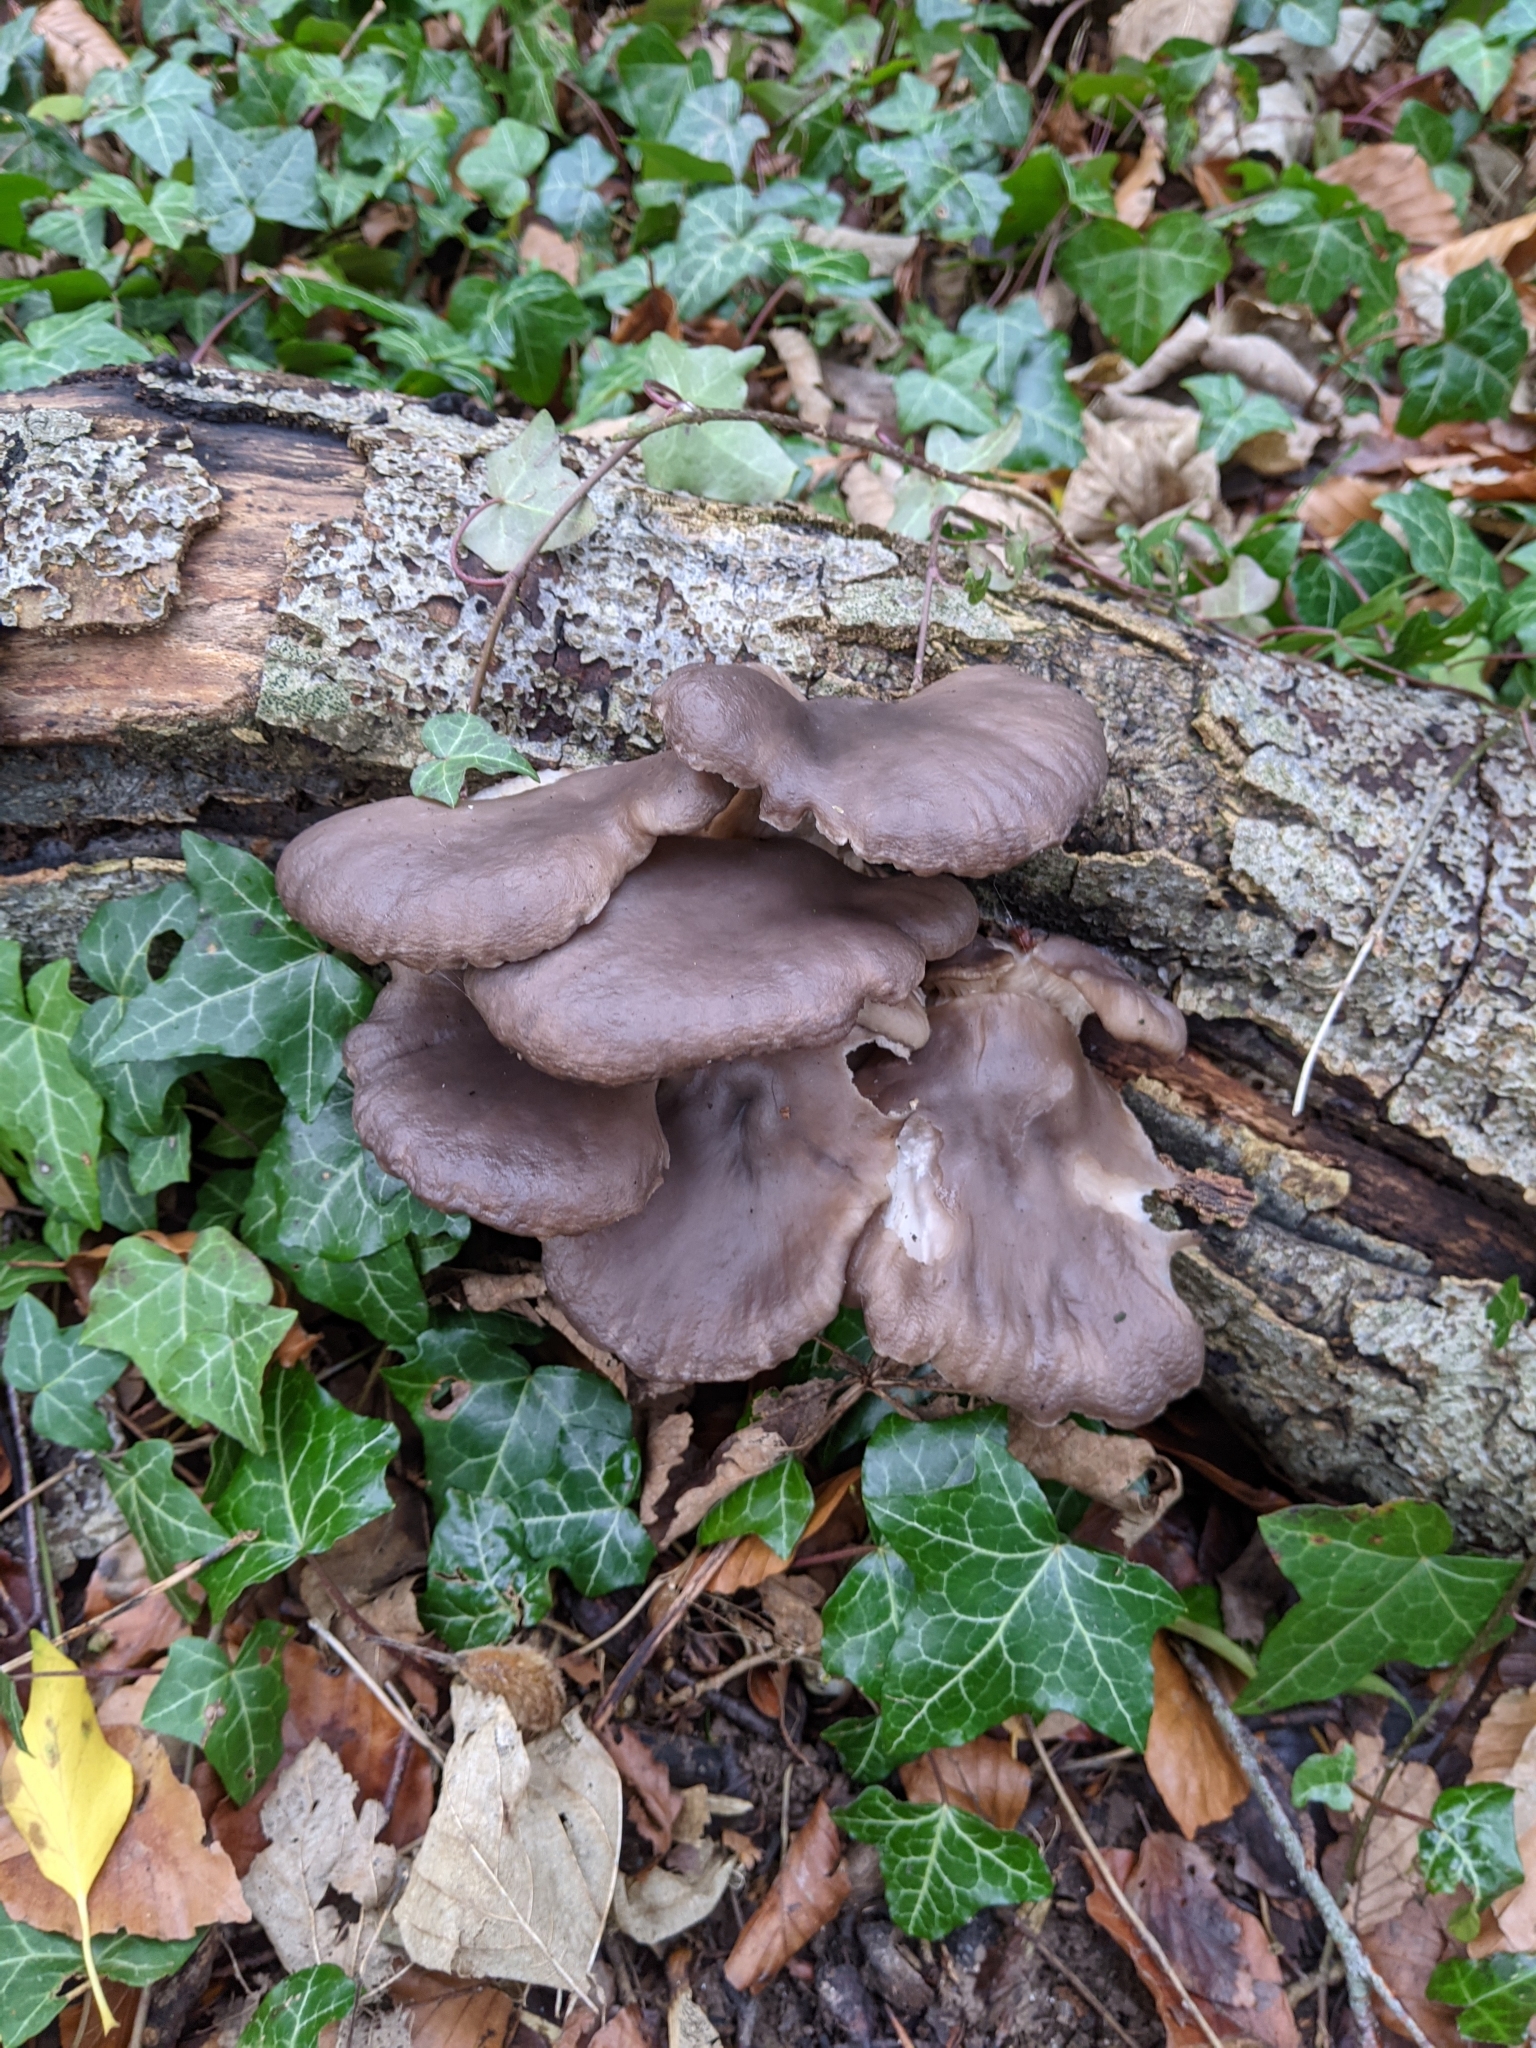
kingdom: Fungi
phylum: Basidiomycota
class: Agaricomycetes
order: Agaricales
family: Pleurotaceae
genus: Pleurotus
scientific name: Pleurotus ostreatus
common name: Oyster mushroom
